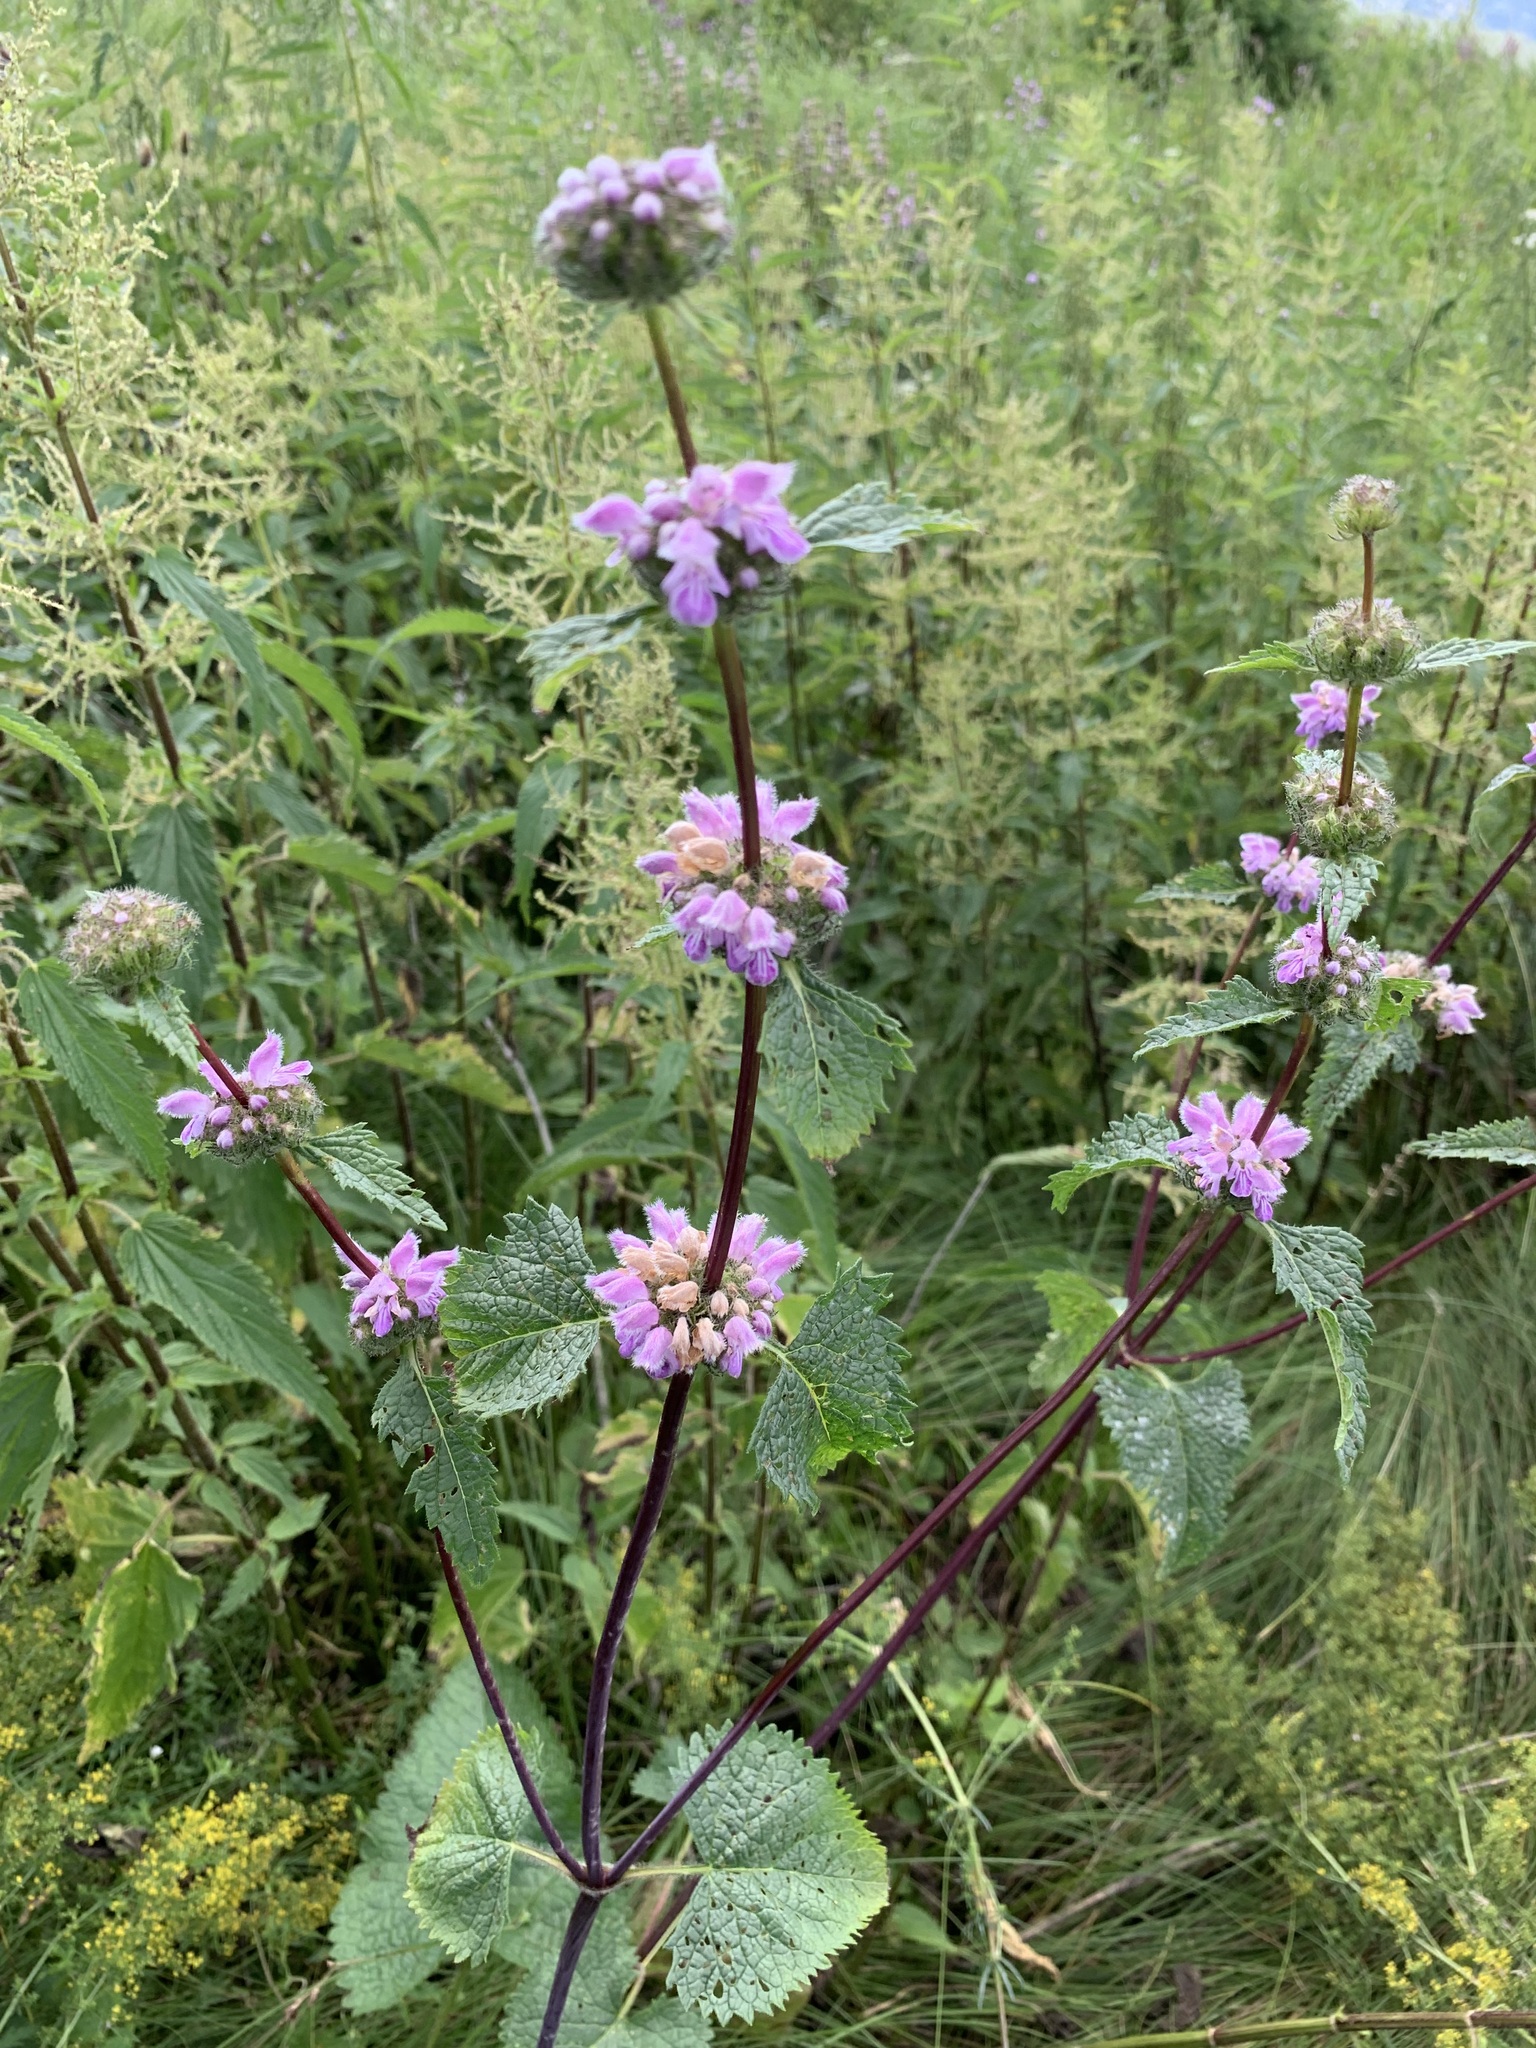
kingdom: Plantae
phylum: Tracheophyta
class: Magnoliopsida
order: Lamiales
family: Lamiaceae
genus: Phlomoides
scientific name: Phlomoides tuberosa
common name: Tuberous jerusalem sage
